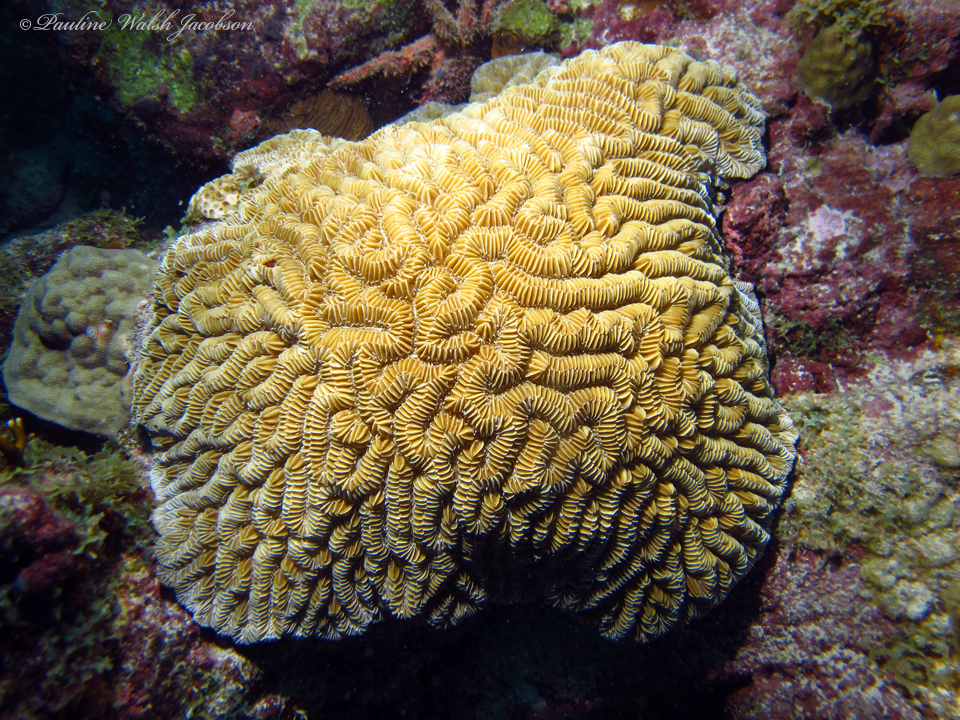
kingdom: Animalia
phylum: Cnidaria
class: Anthozoa
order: Scleractinia
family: Meandrinidae
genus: Meandrina
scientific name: Meandrina meandrites
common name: Maze coral
